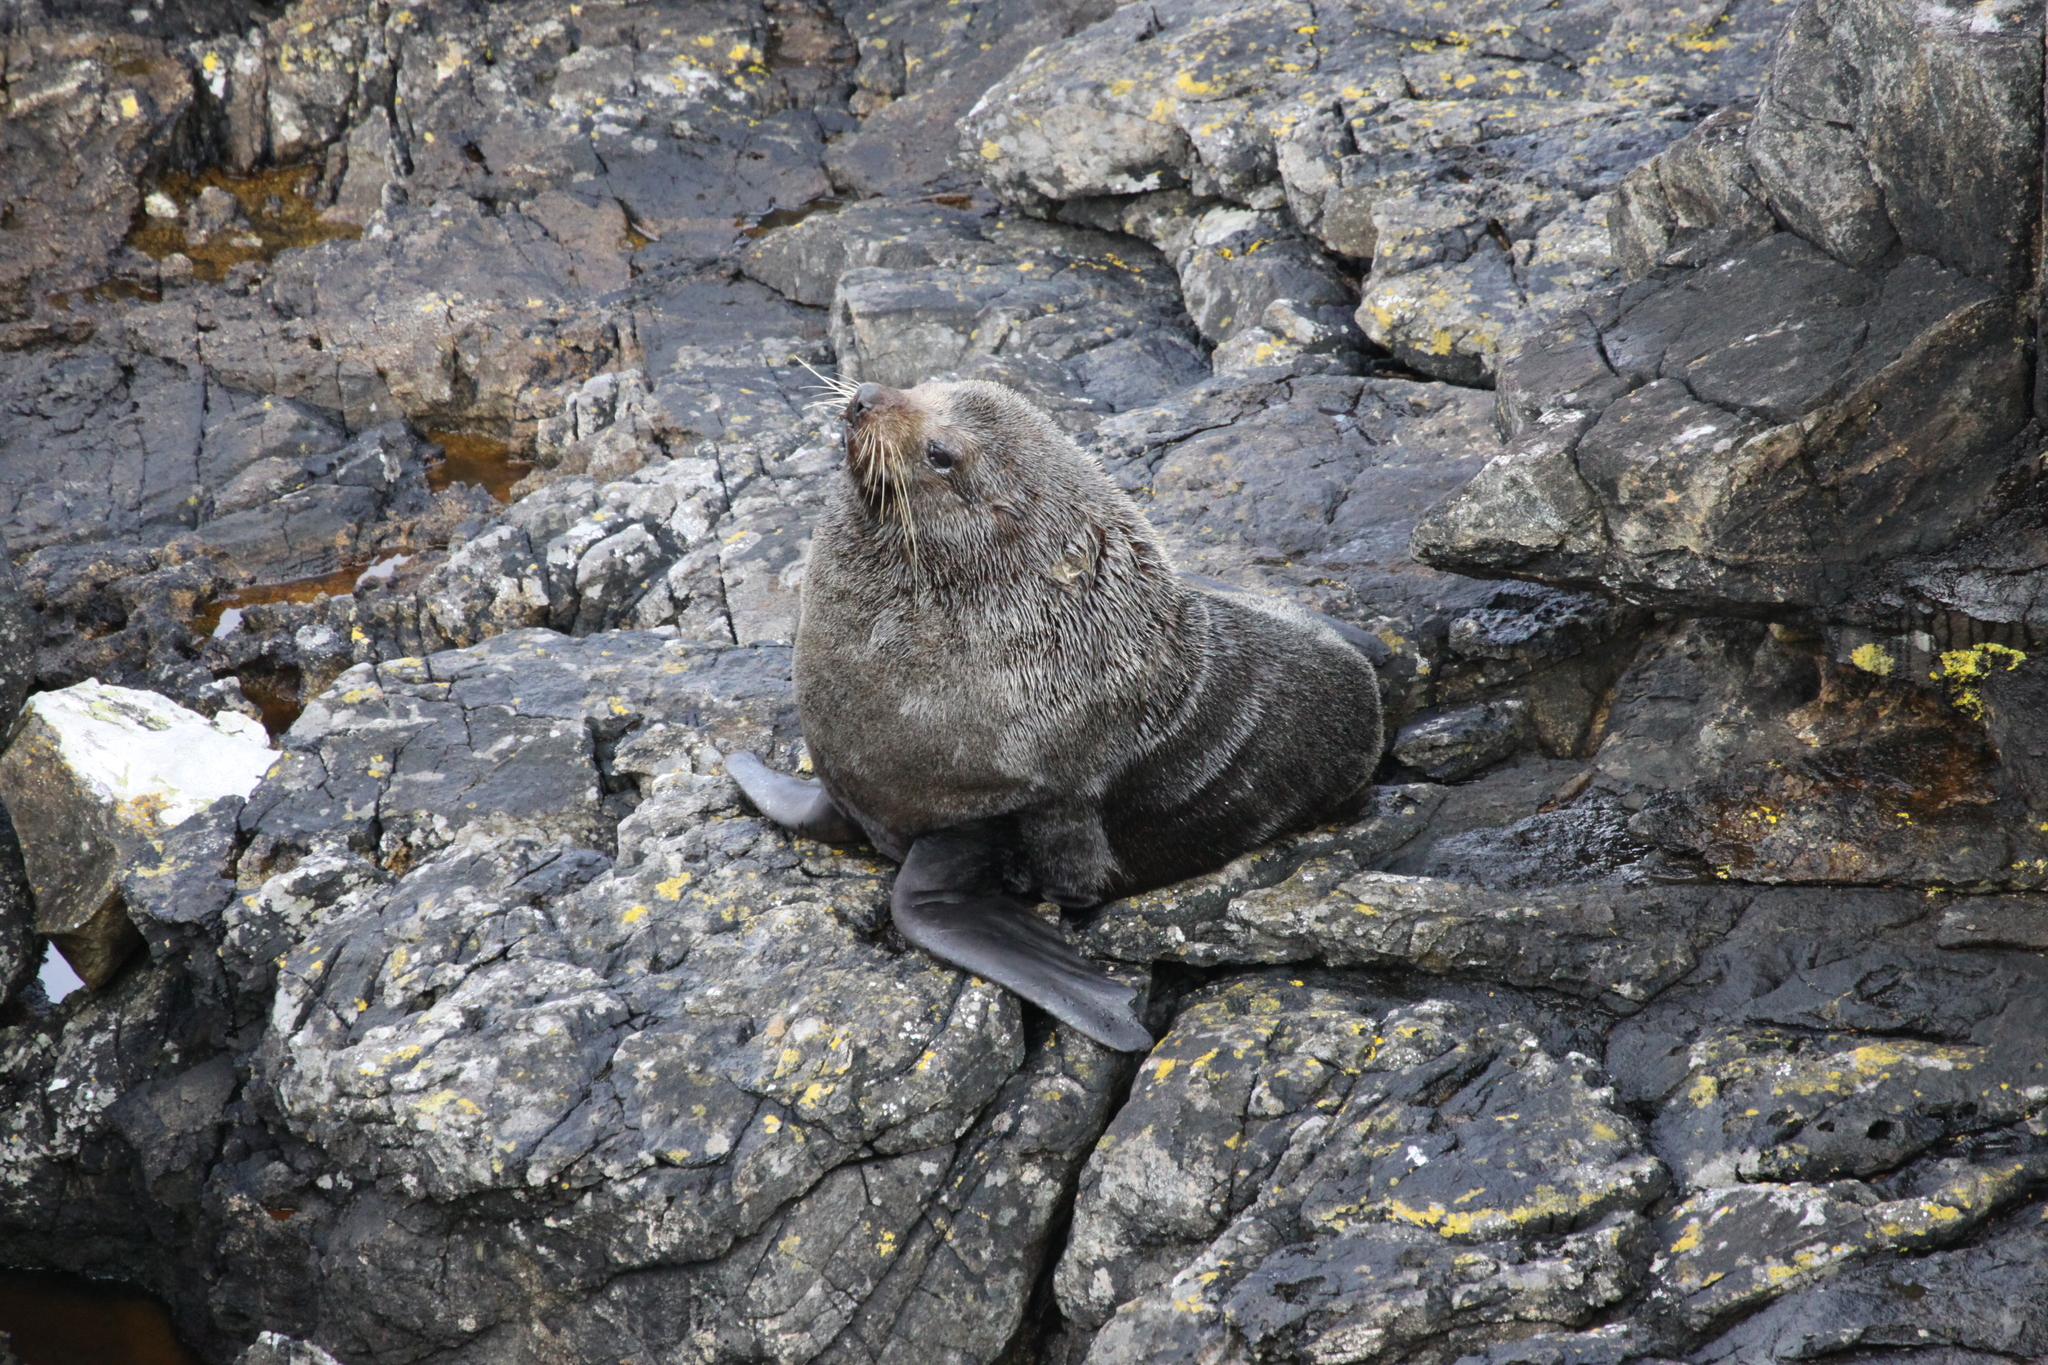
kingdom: Animalia
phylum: Chordata
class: Mammalia
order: Carnivora
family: Otariidae
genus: Arctocephalus
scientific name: Arctocephalus forsteri
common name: New zealand fur seal
